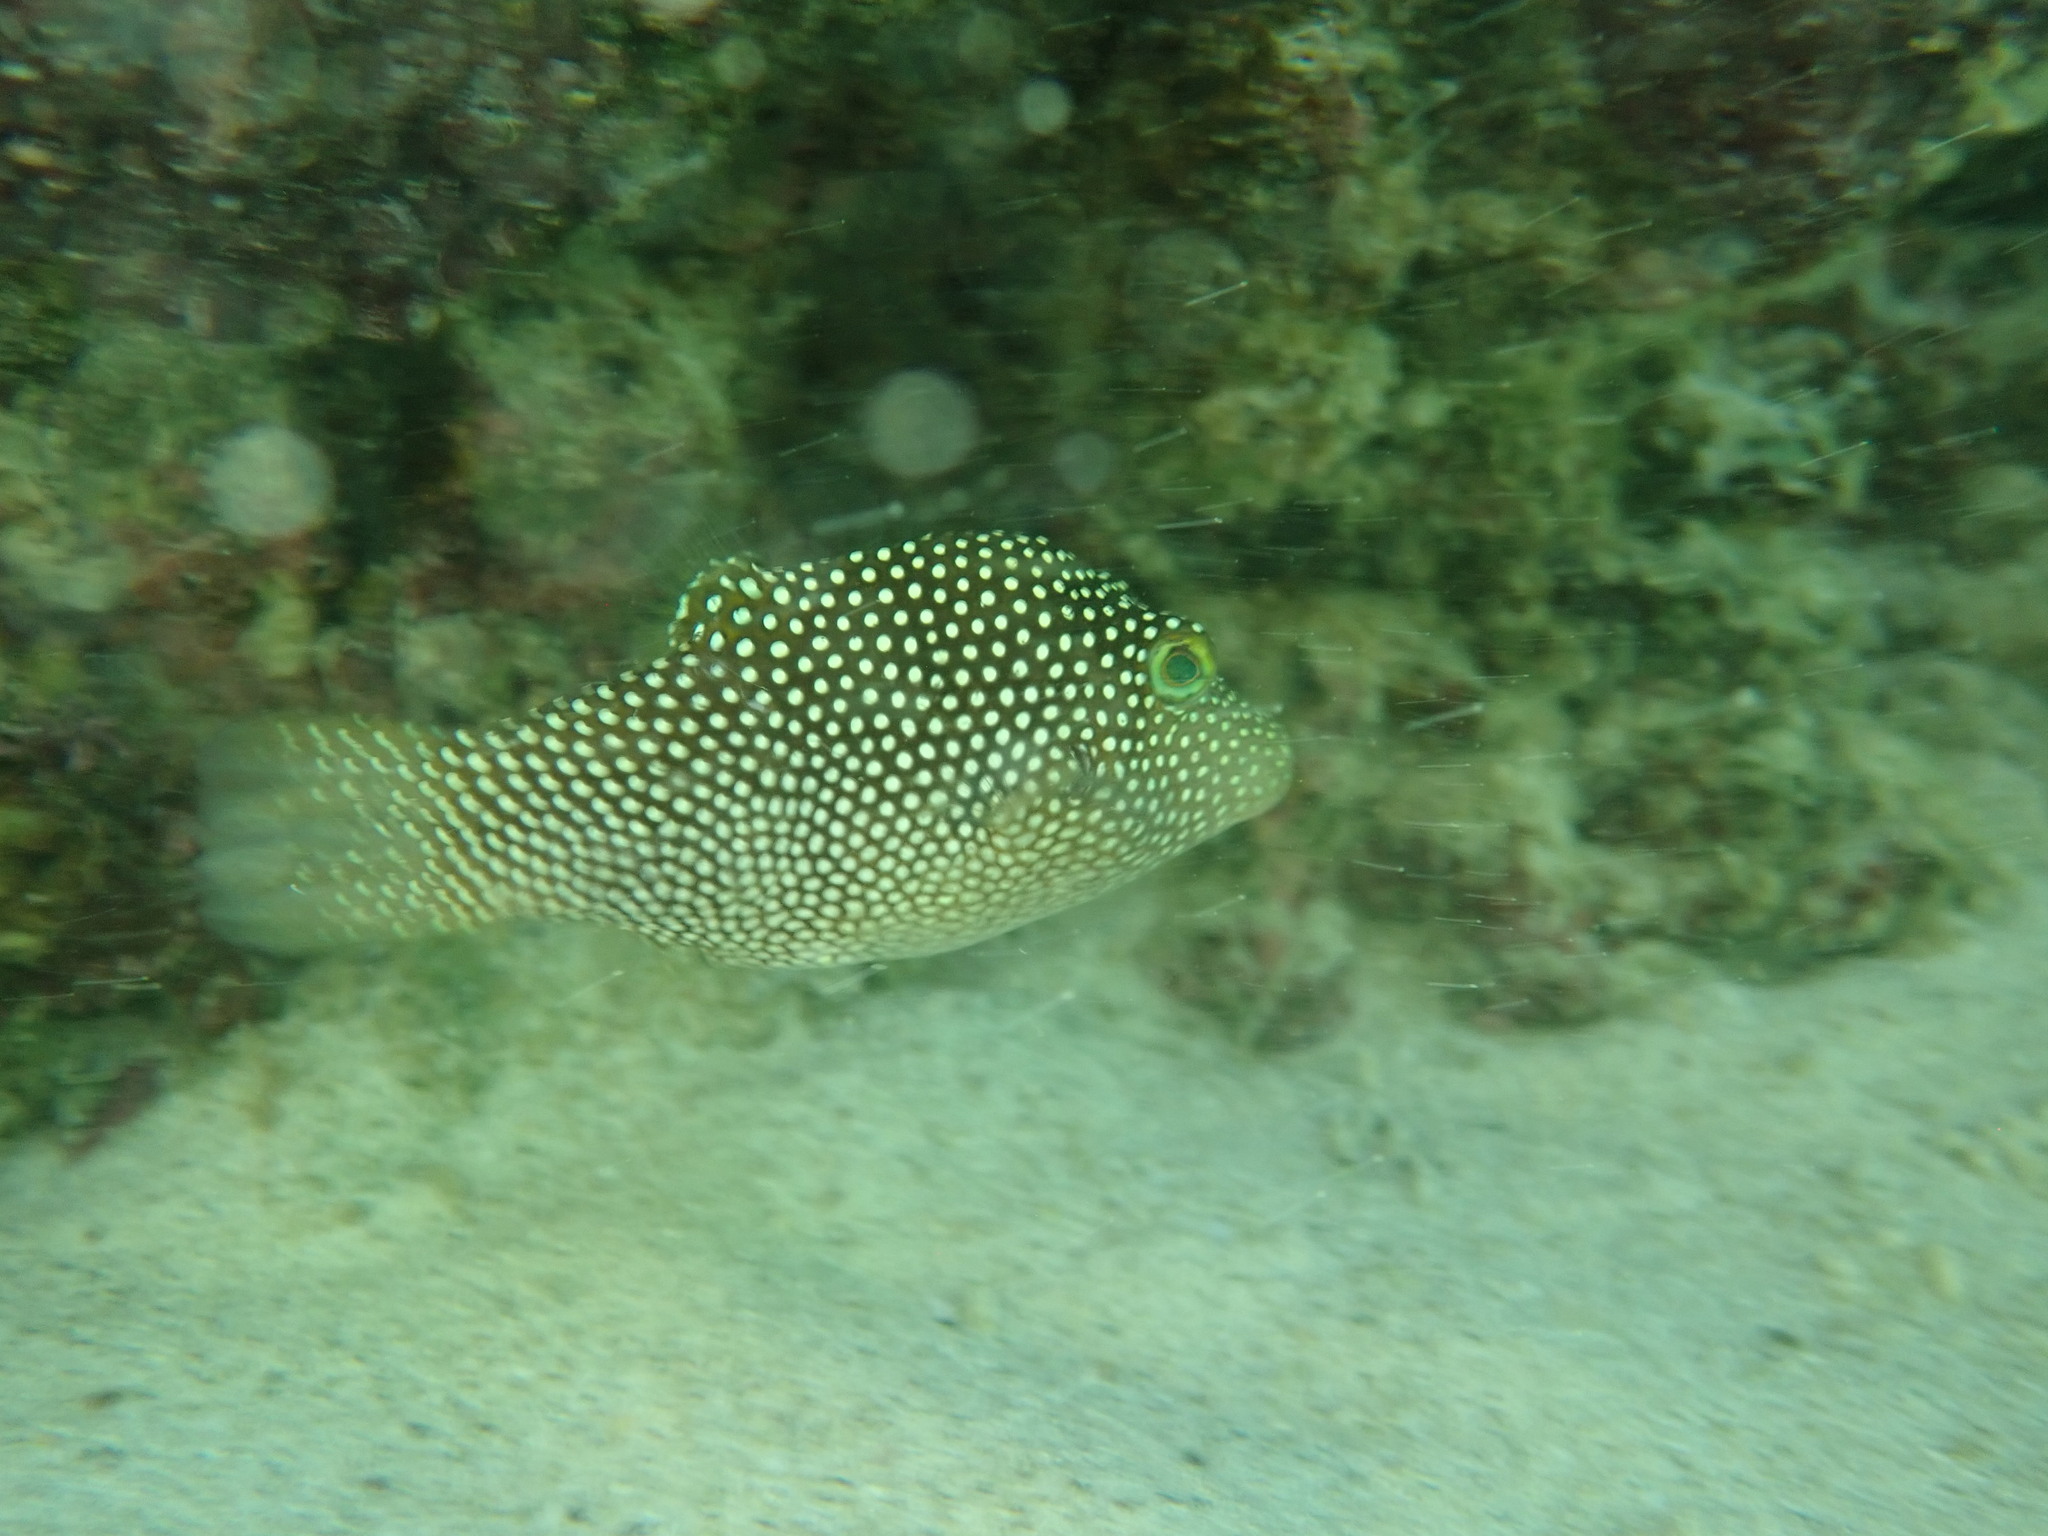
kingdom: Animalia
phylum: Chordata
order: Tetraodontiformes
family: Tetraodontidae
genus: Canthigaster
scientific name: Canthigaster punctatissima
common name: Spotted sharpnose puffer
